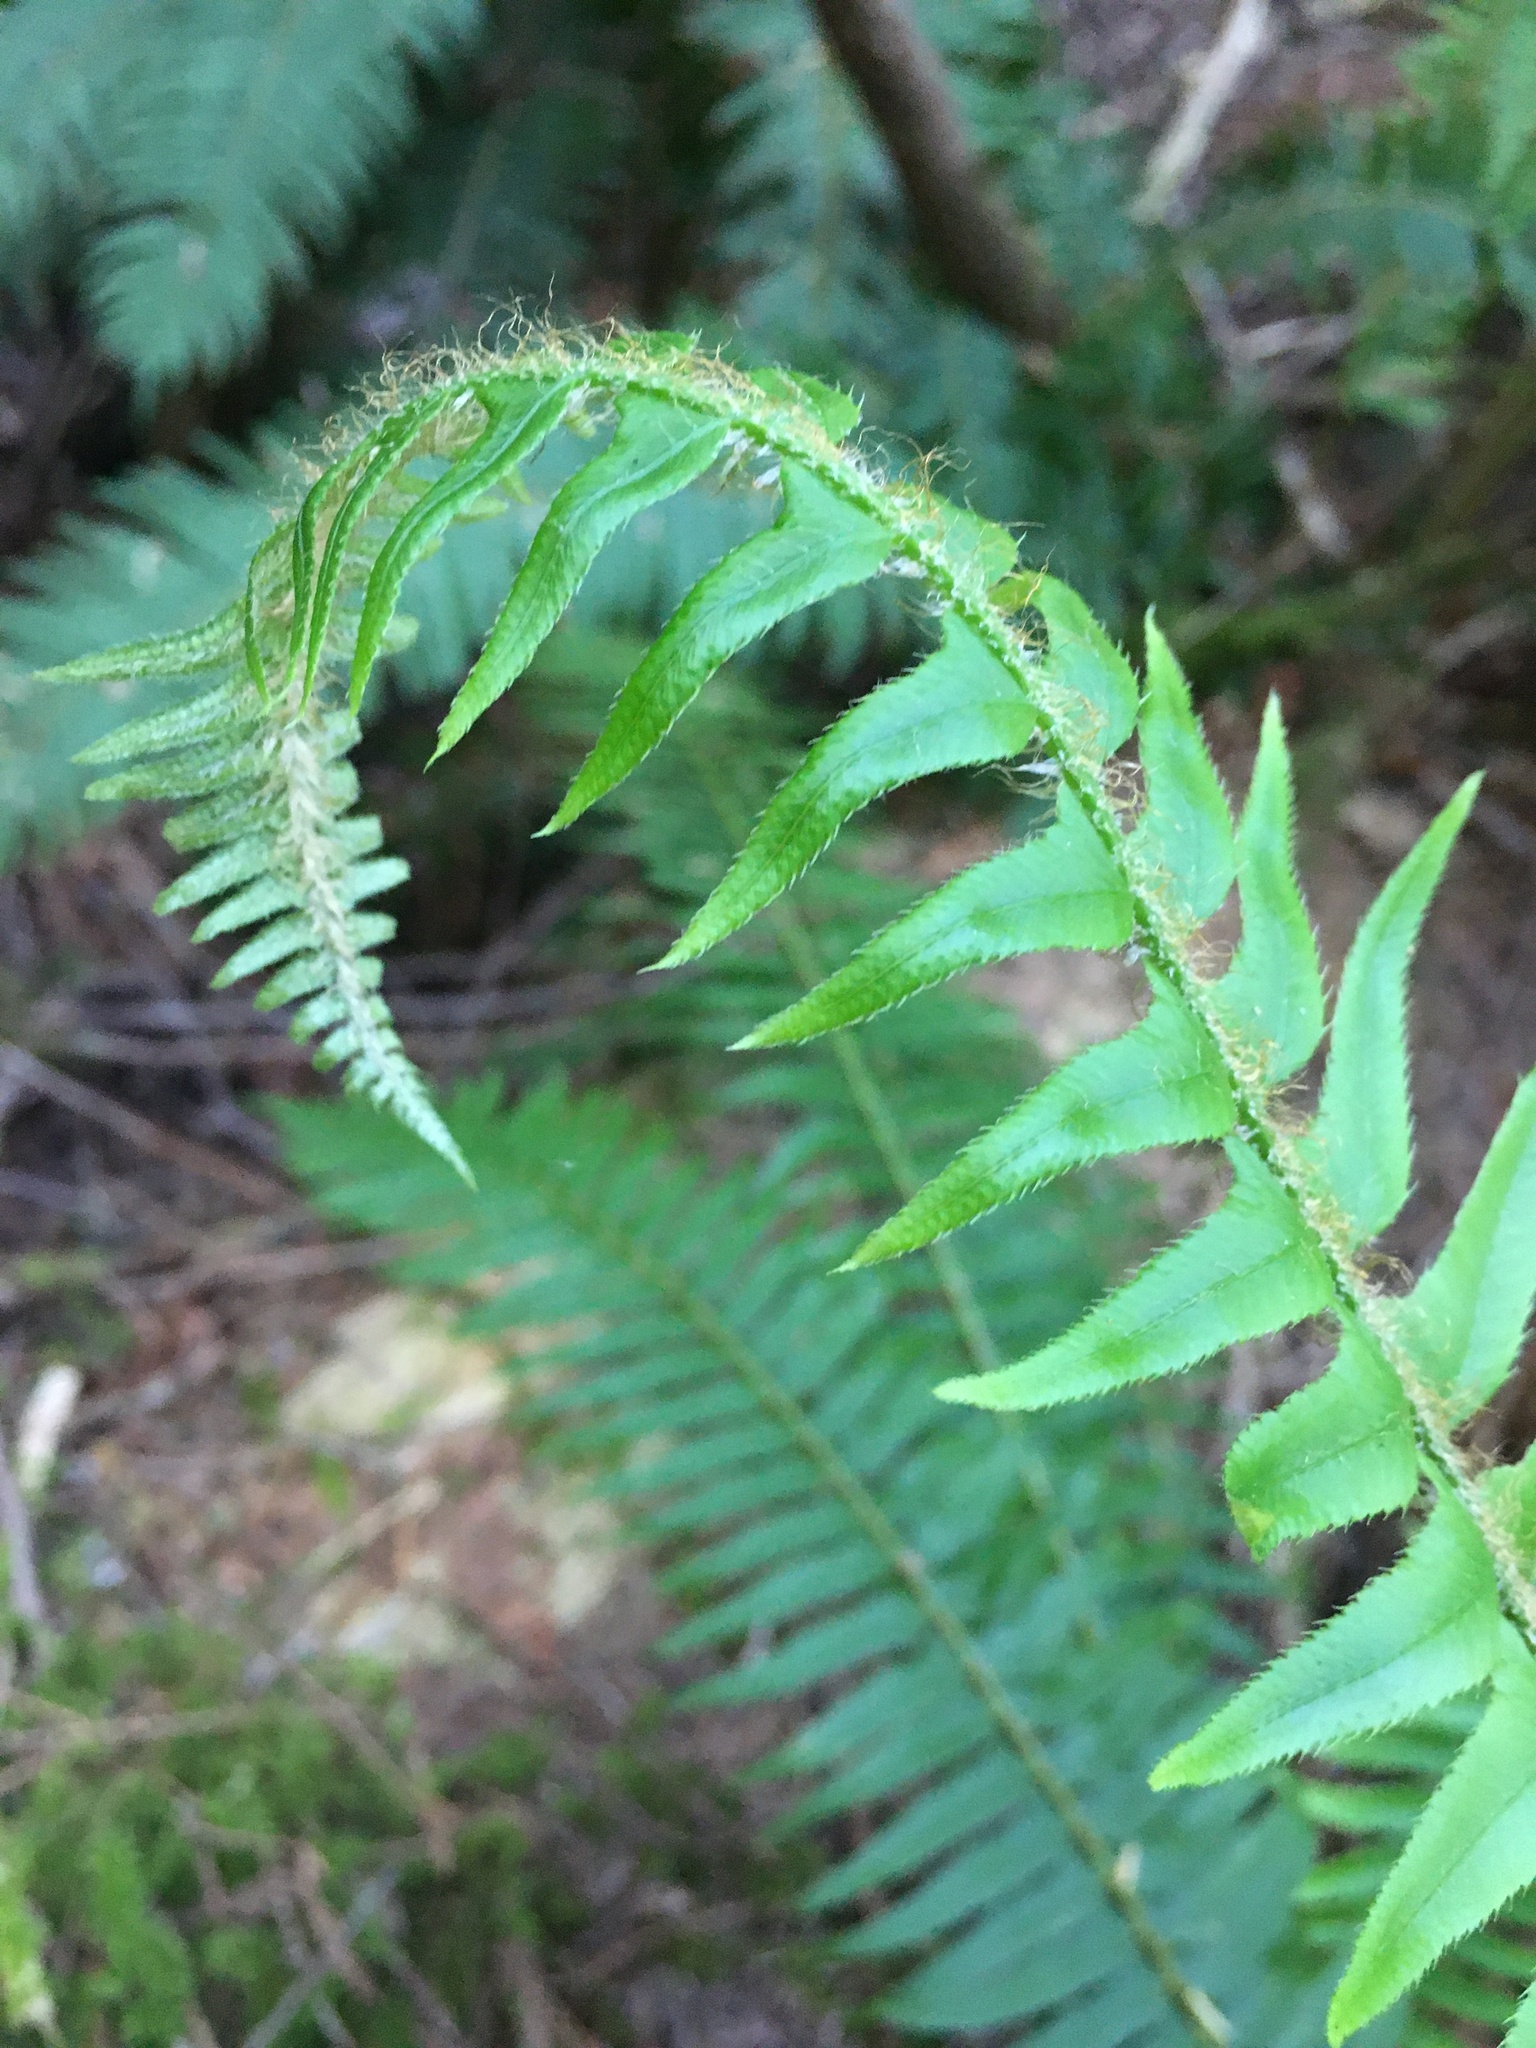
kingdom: Plantae
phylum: Tracheophyta
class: Polypodiopsida
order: Polypodiales
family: Dryopteridaceae
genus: Polystichum
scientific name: Polystichum munitum
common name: Western sword-fern
